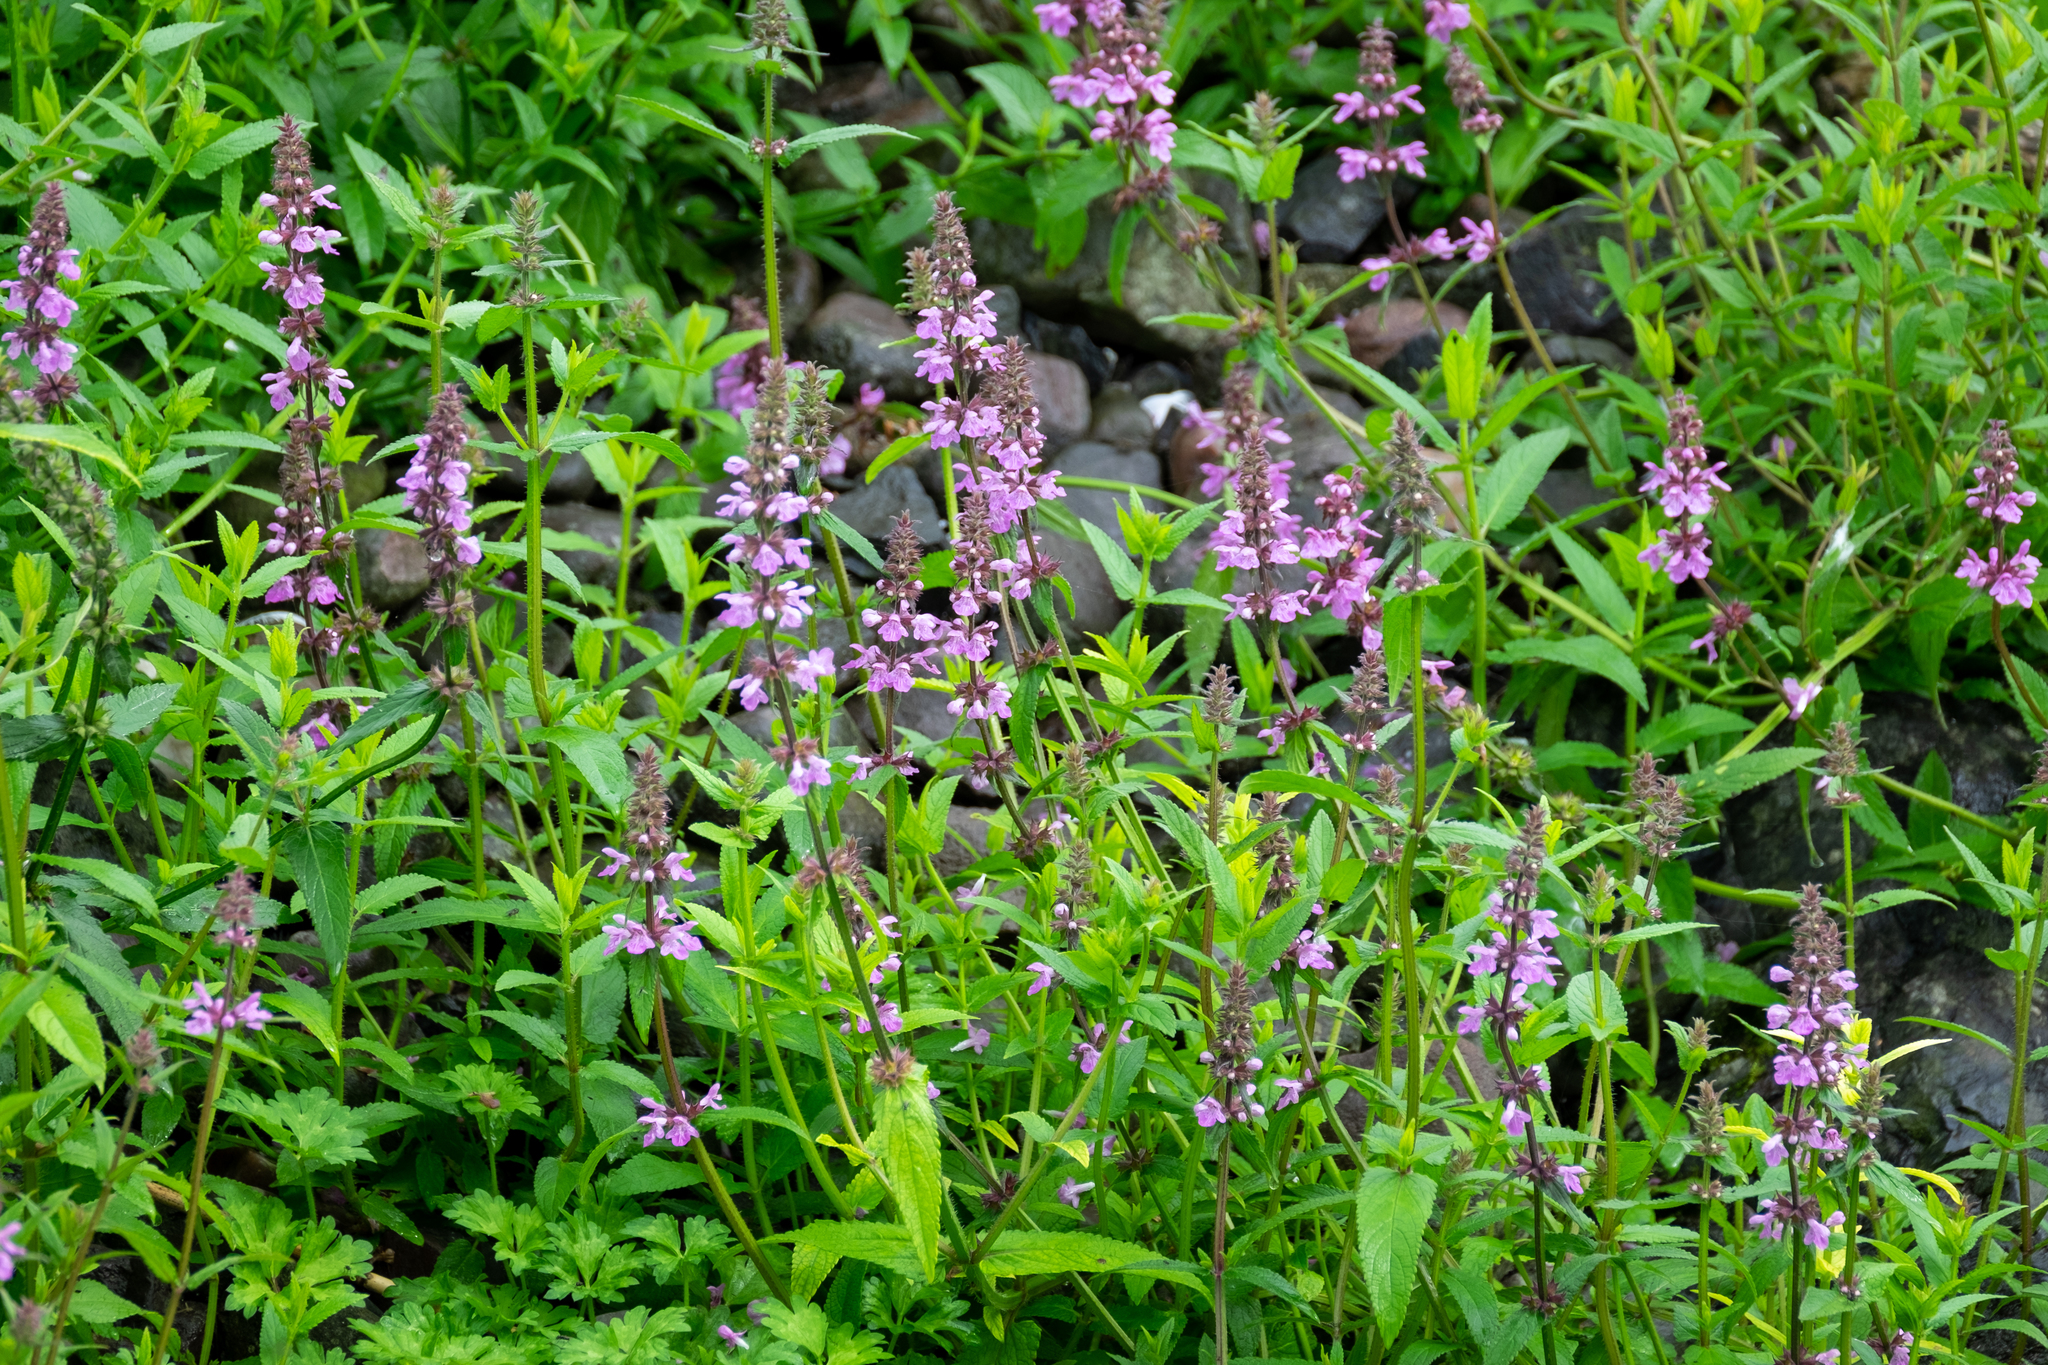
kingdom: Plantae
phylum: Tracheophyta
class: Magnoliopsida
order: Lamiales
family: Lamiaceae
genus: Stachys
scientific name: Stachys palustris
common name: Marsh woundwort
